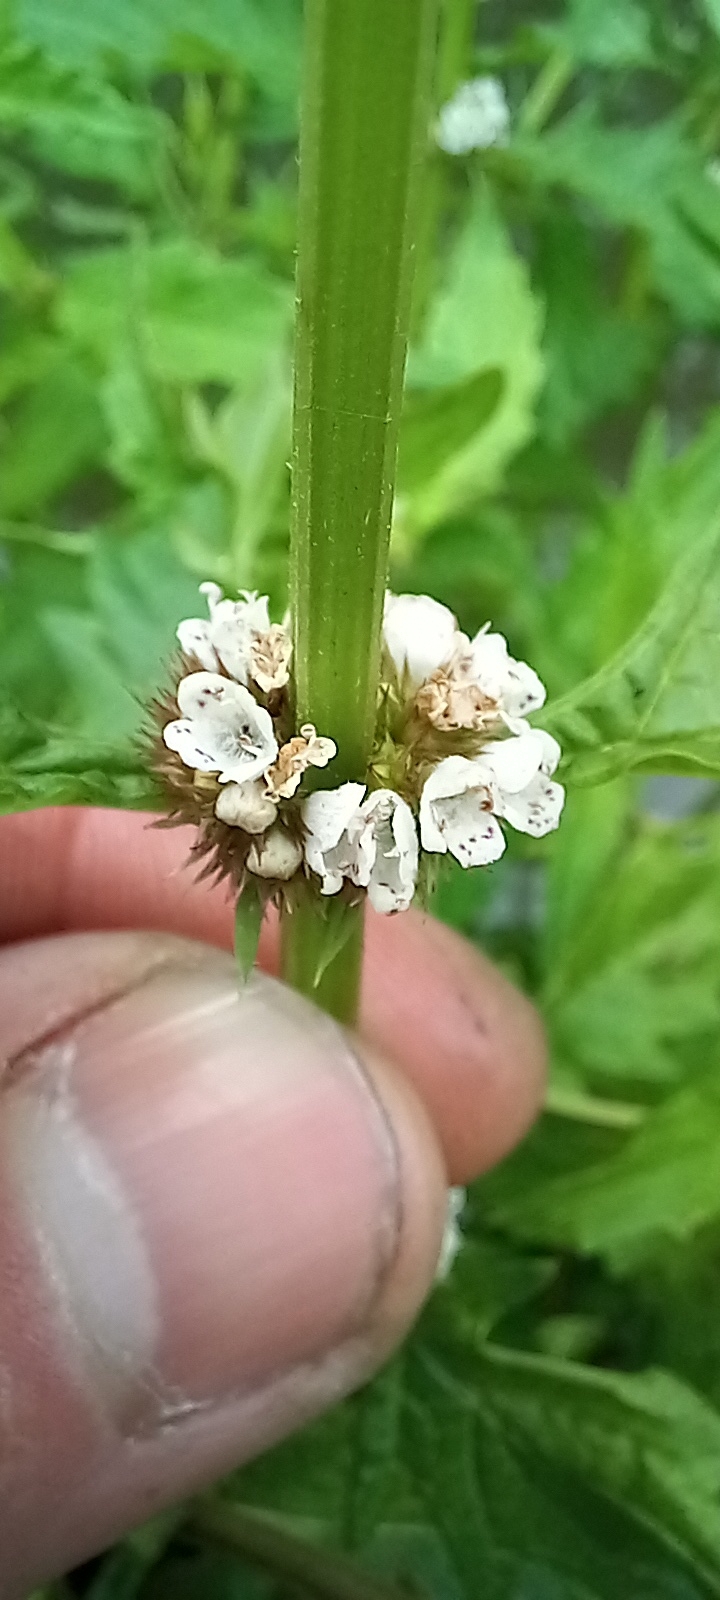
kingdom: Plantae
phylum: Tracheophyta
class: Magnoliopsida
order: Lamiales
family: Lamiaceae
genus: Lycopus
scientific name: Lycopus europaeus
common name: European bugleweed
